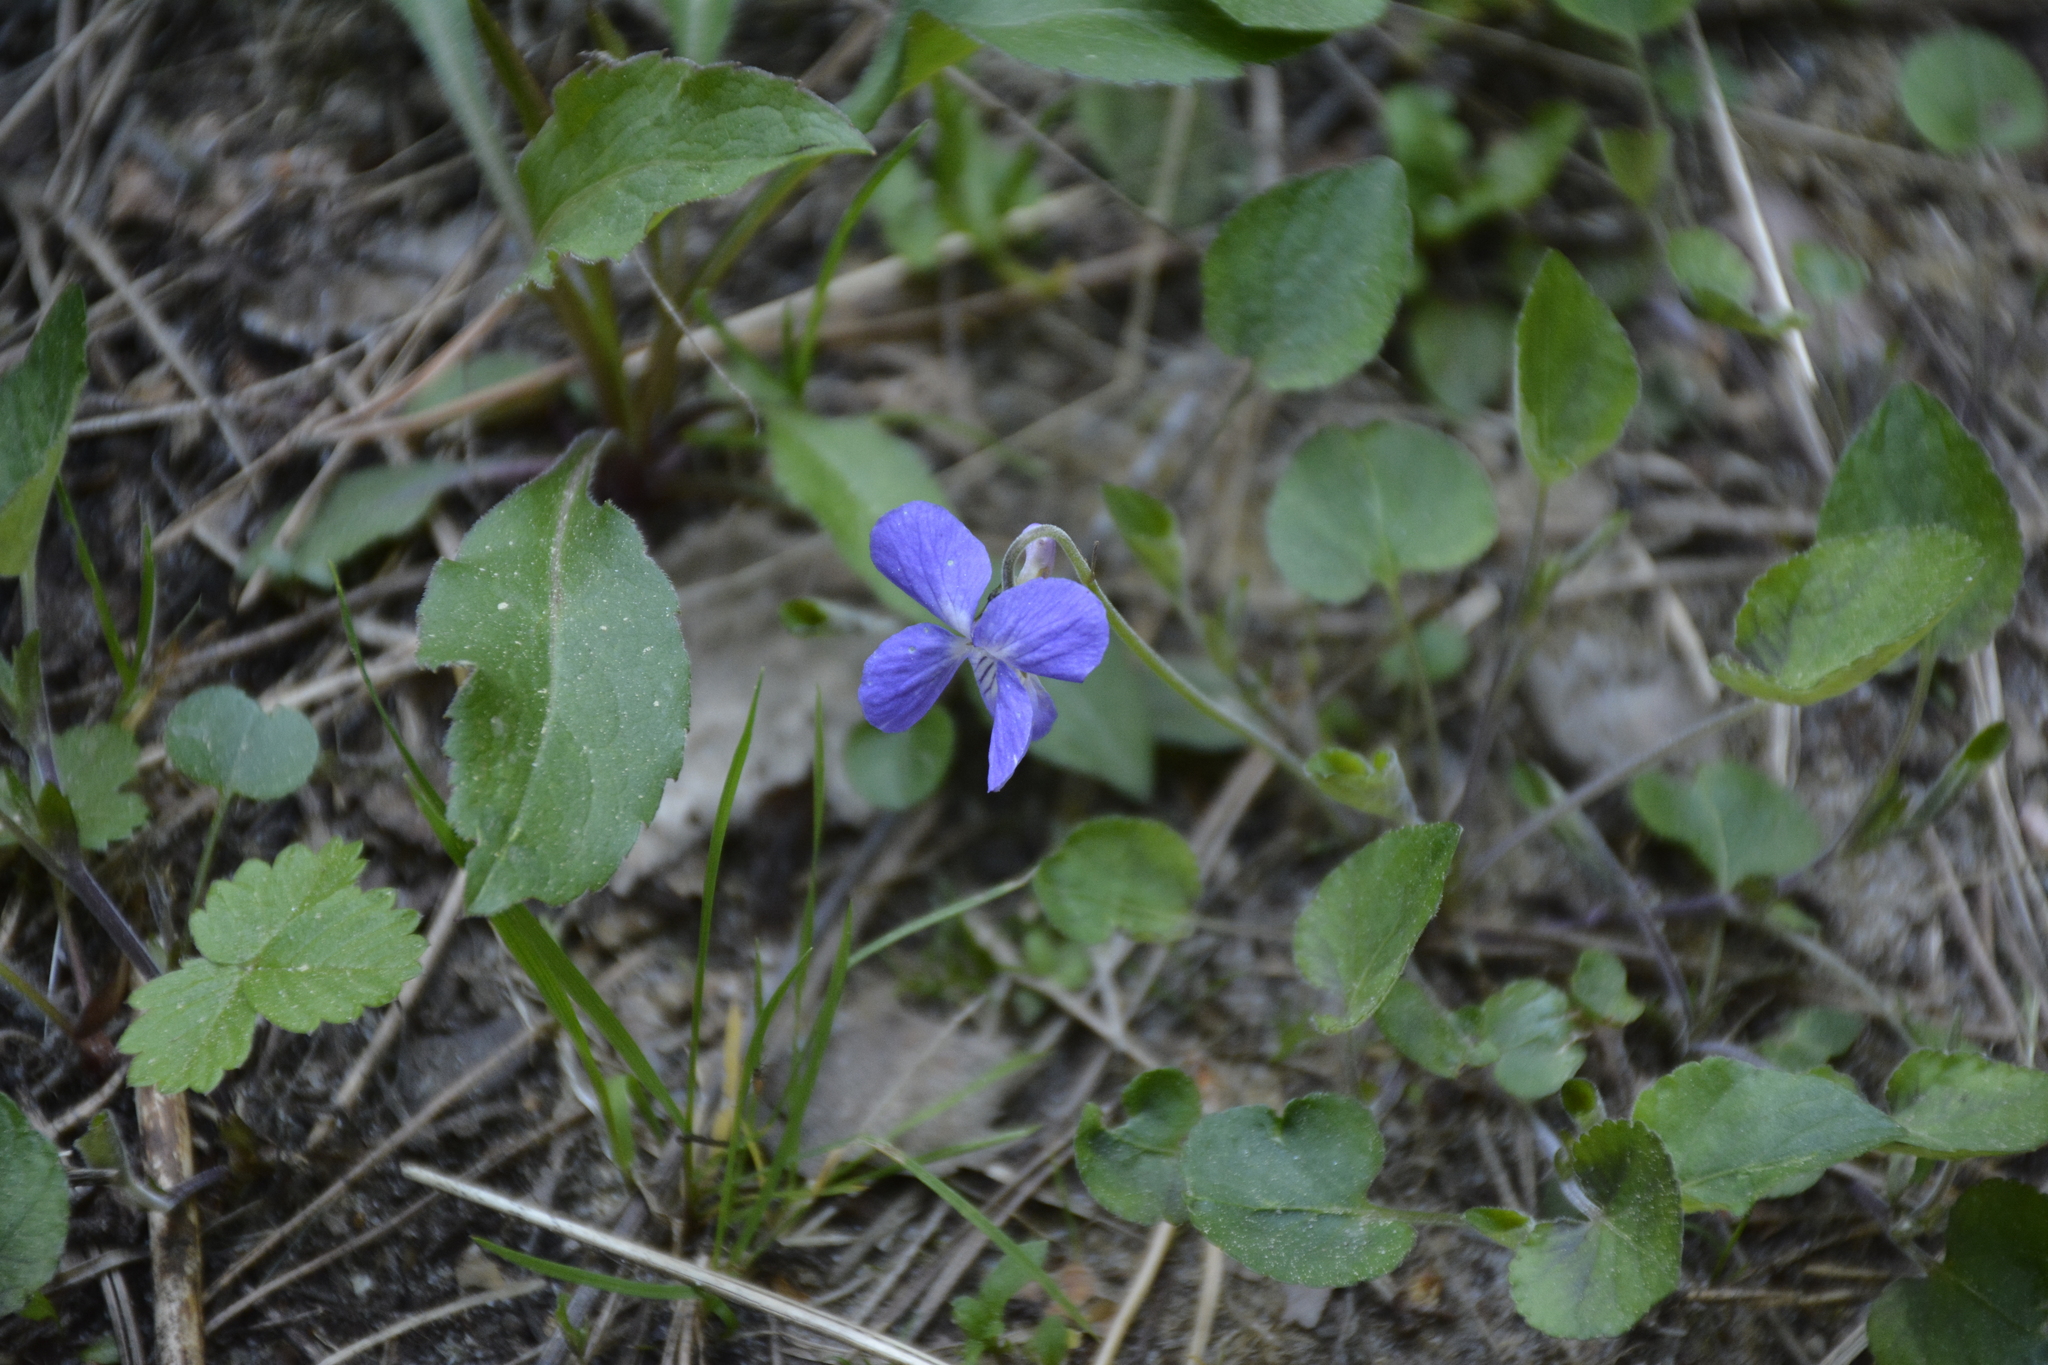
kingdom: Plantae
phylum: Tracheophyta
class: Magnoliopsida
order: Malpighiales
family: Violaceae
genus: Viola
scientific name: Viola rupestris
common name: Teesdale violet
